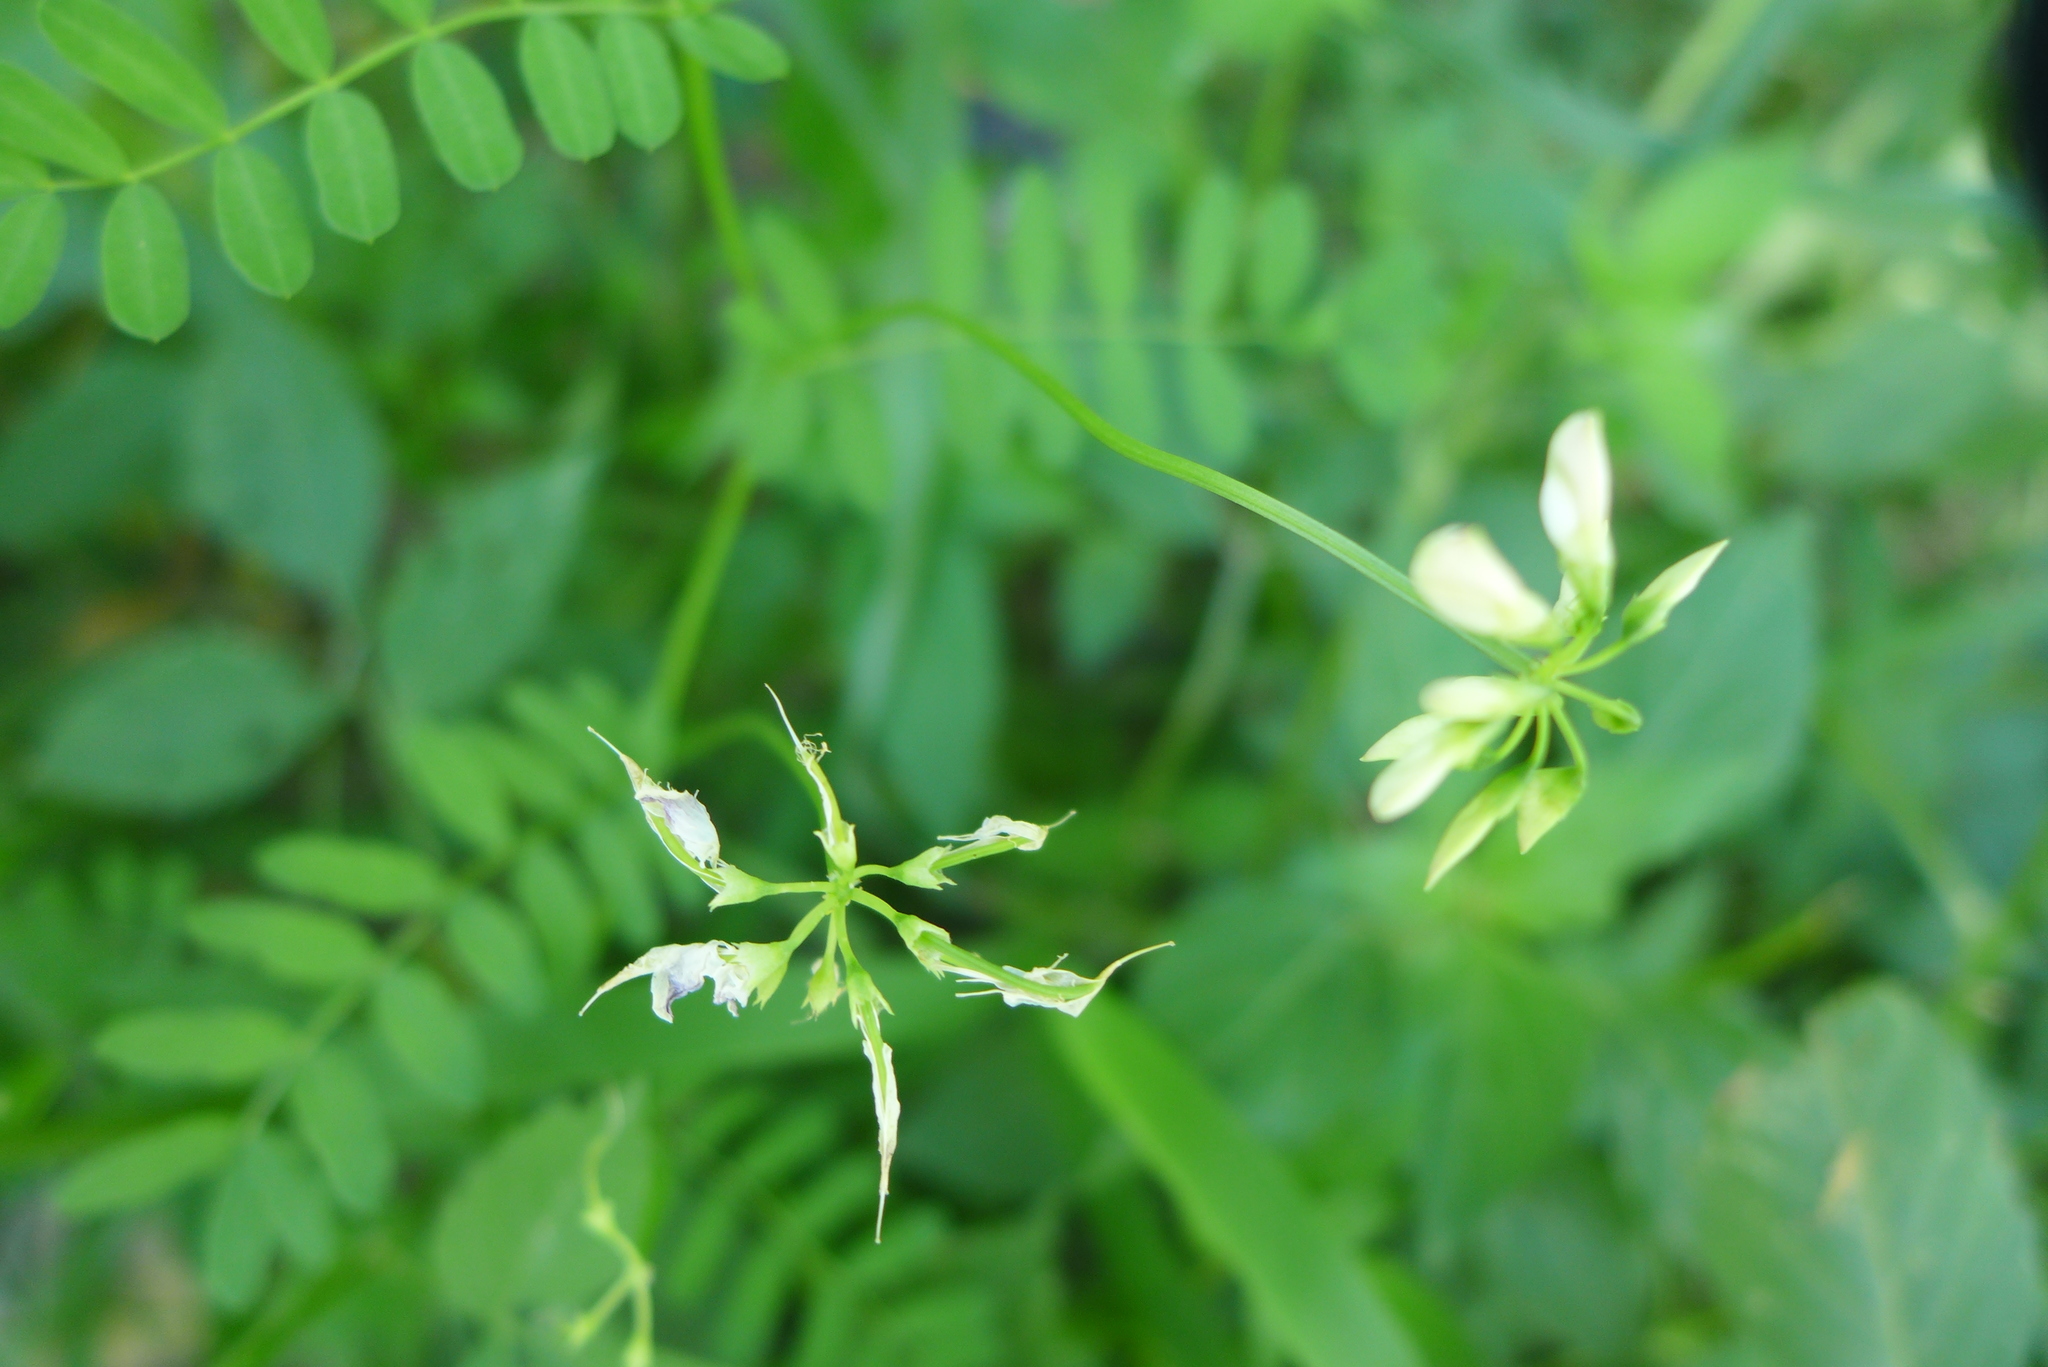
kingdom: Plantae
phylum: Tracheophyta
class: Magnoliopsida
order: Fabales
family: Fabaceae
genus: Coronilla
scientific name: Coronilla varia
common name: Crownvetch
